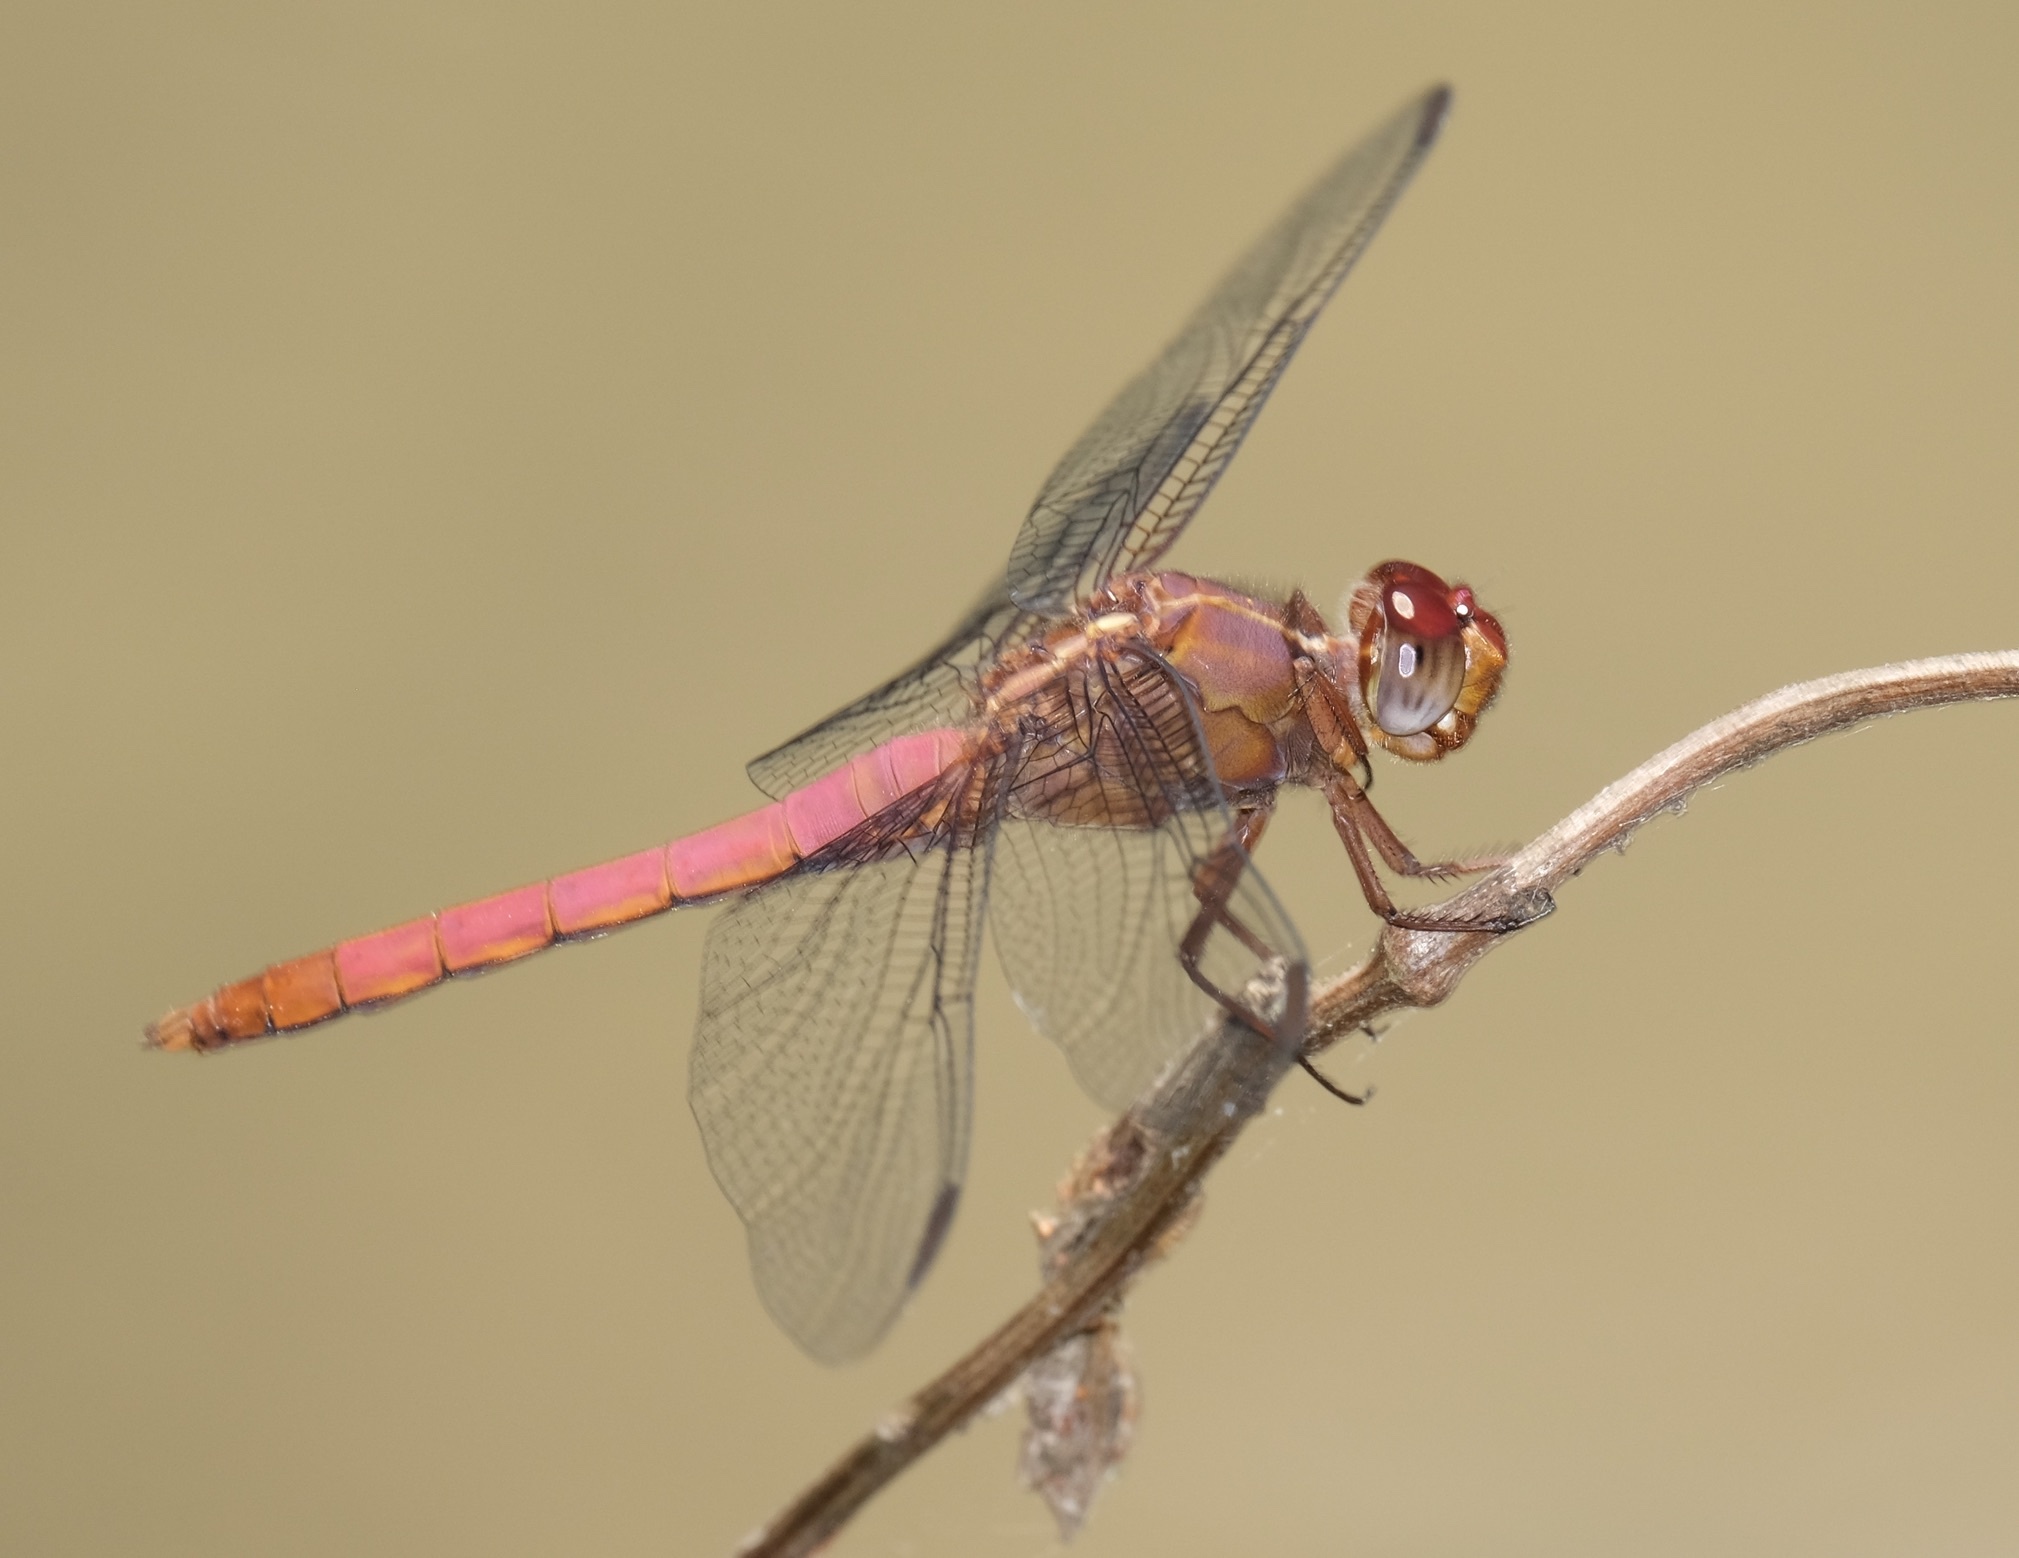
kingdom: Animalia
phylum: Arthropoda
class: Insecta
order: Odonata
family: Libellulidae
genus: Orthemis
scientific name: Orthemis ferruginea
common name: Roseate skimmer
